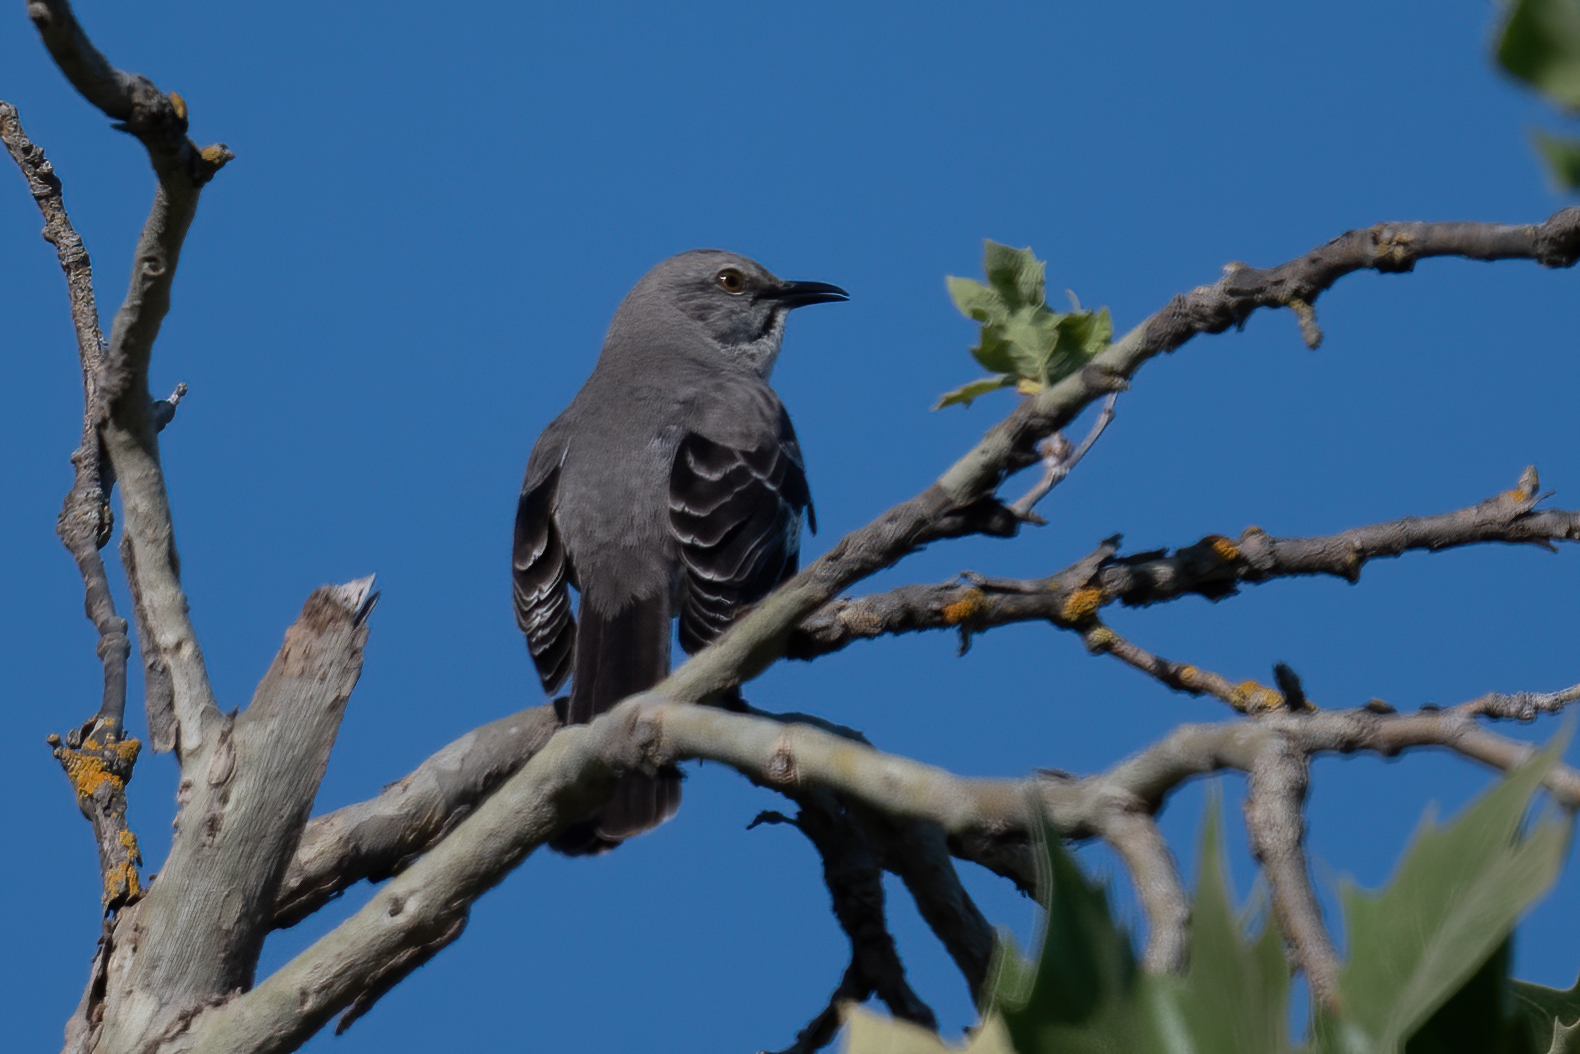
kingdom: Animalia
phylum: Chordata
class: Aves
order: Passeriformes
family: Mimidae
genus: Mimus
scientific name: Mimus polyglottos
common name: Northern mockingbird
